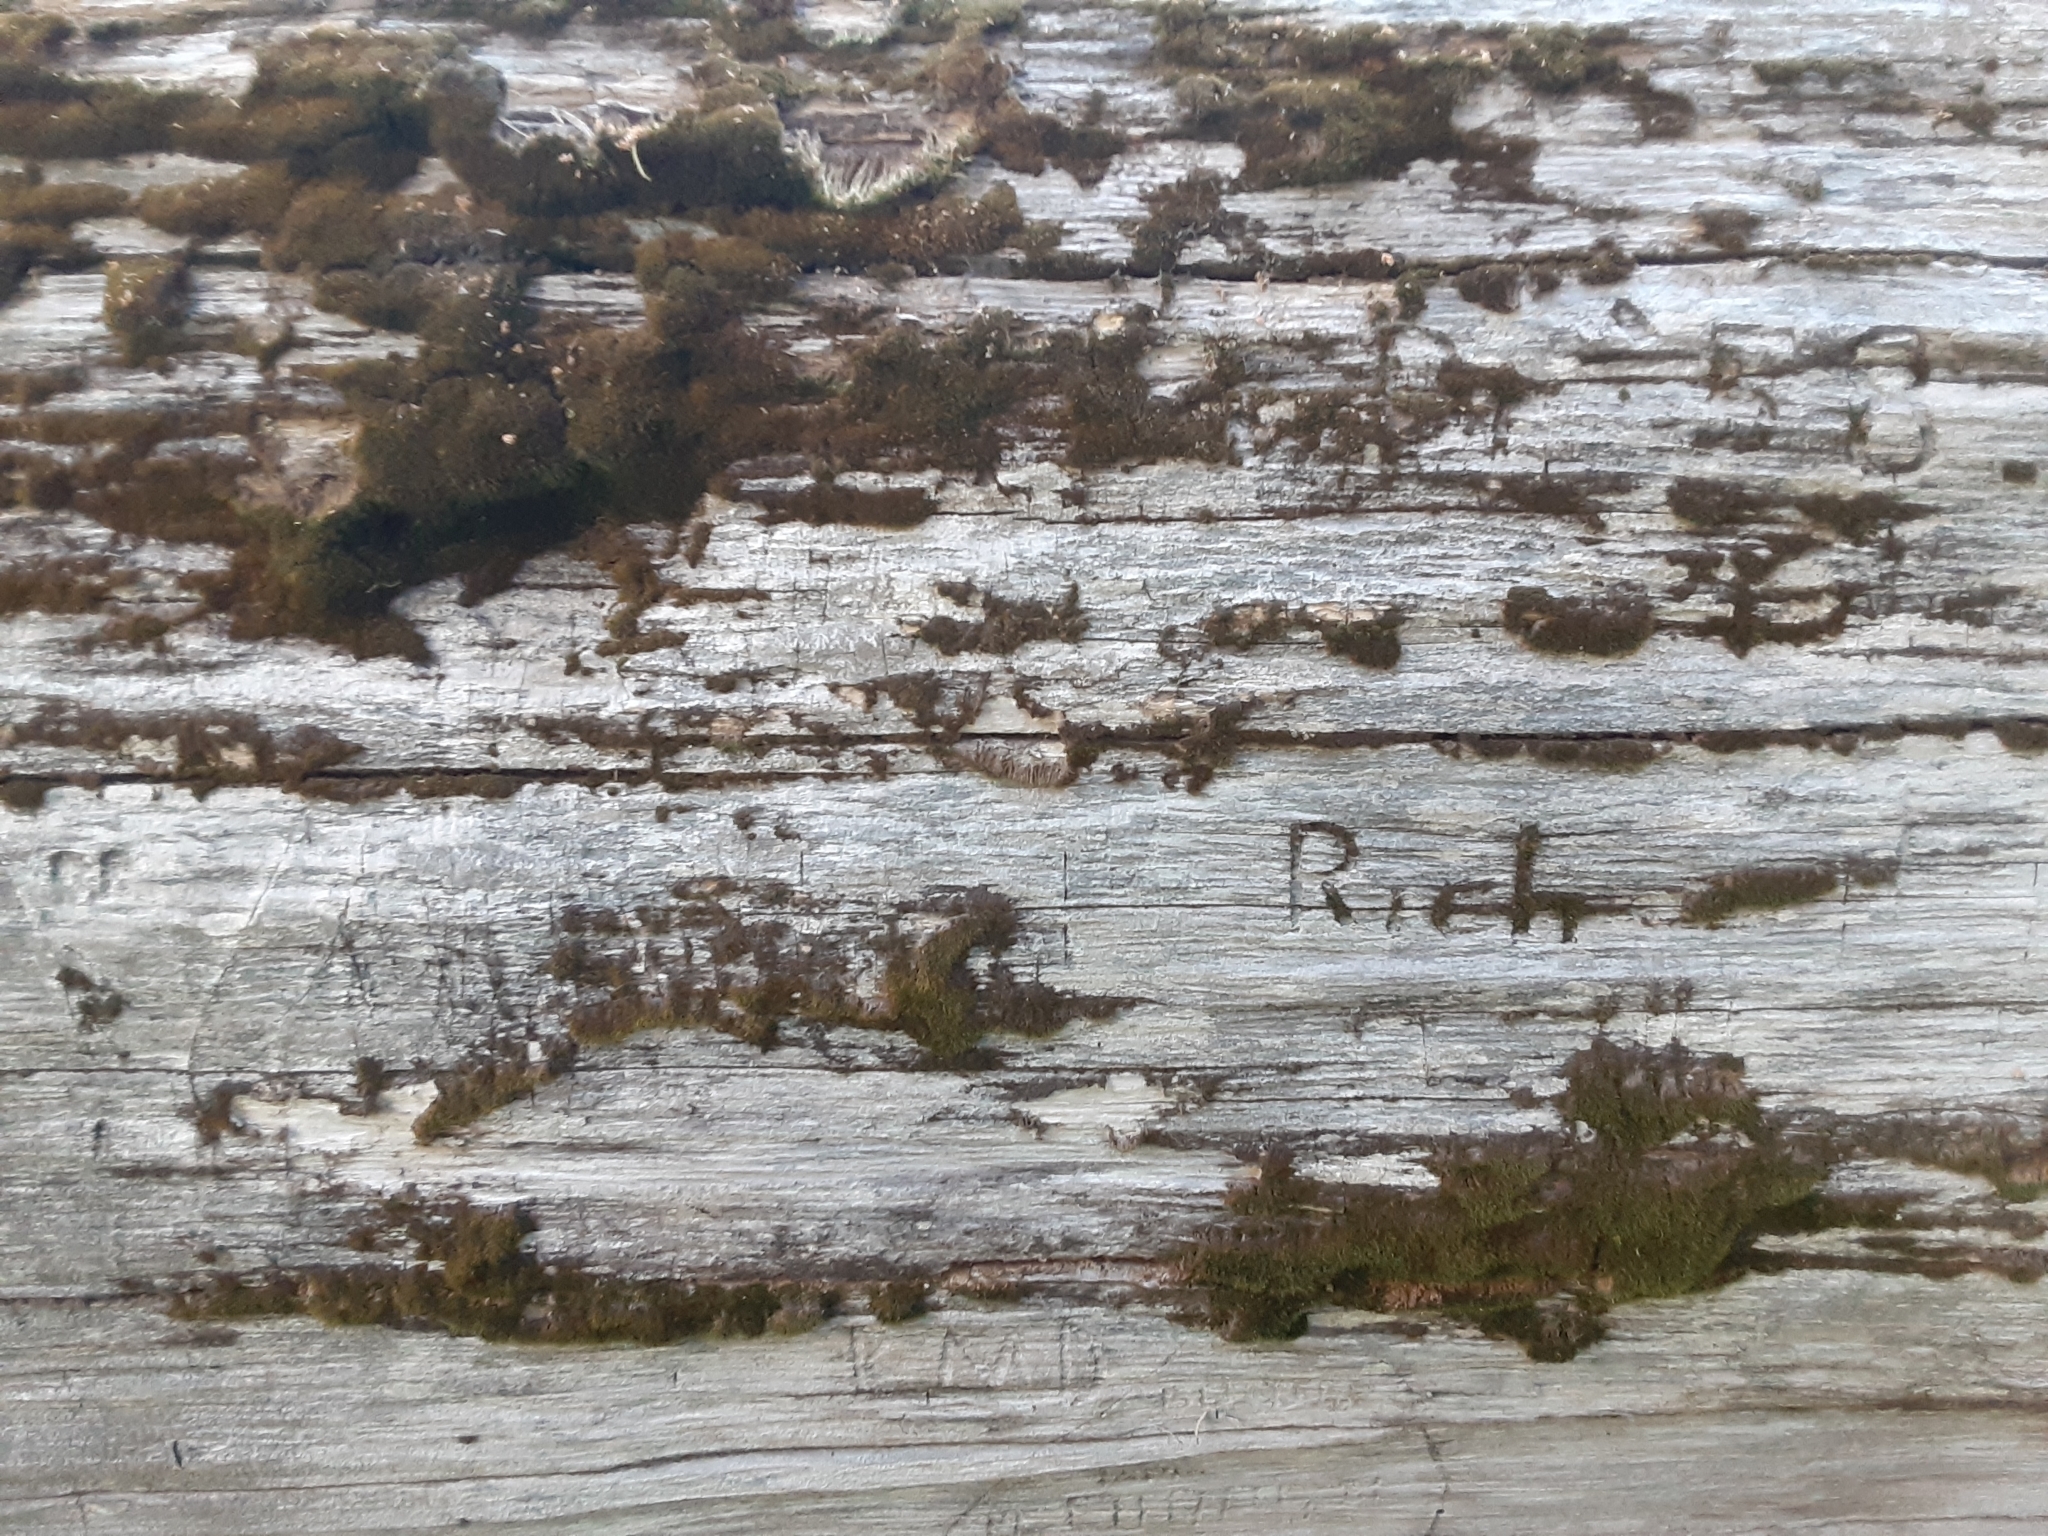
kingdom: Plantae
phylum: Tracheophyta
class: Pinopsida
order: Pinales
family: Cupressaceae
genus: Sequoiadendron
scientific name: Sequoiadendron giganteum
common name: Wellingtonia
